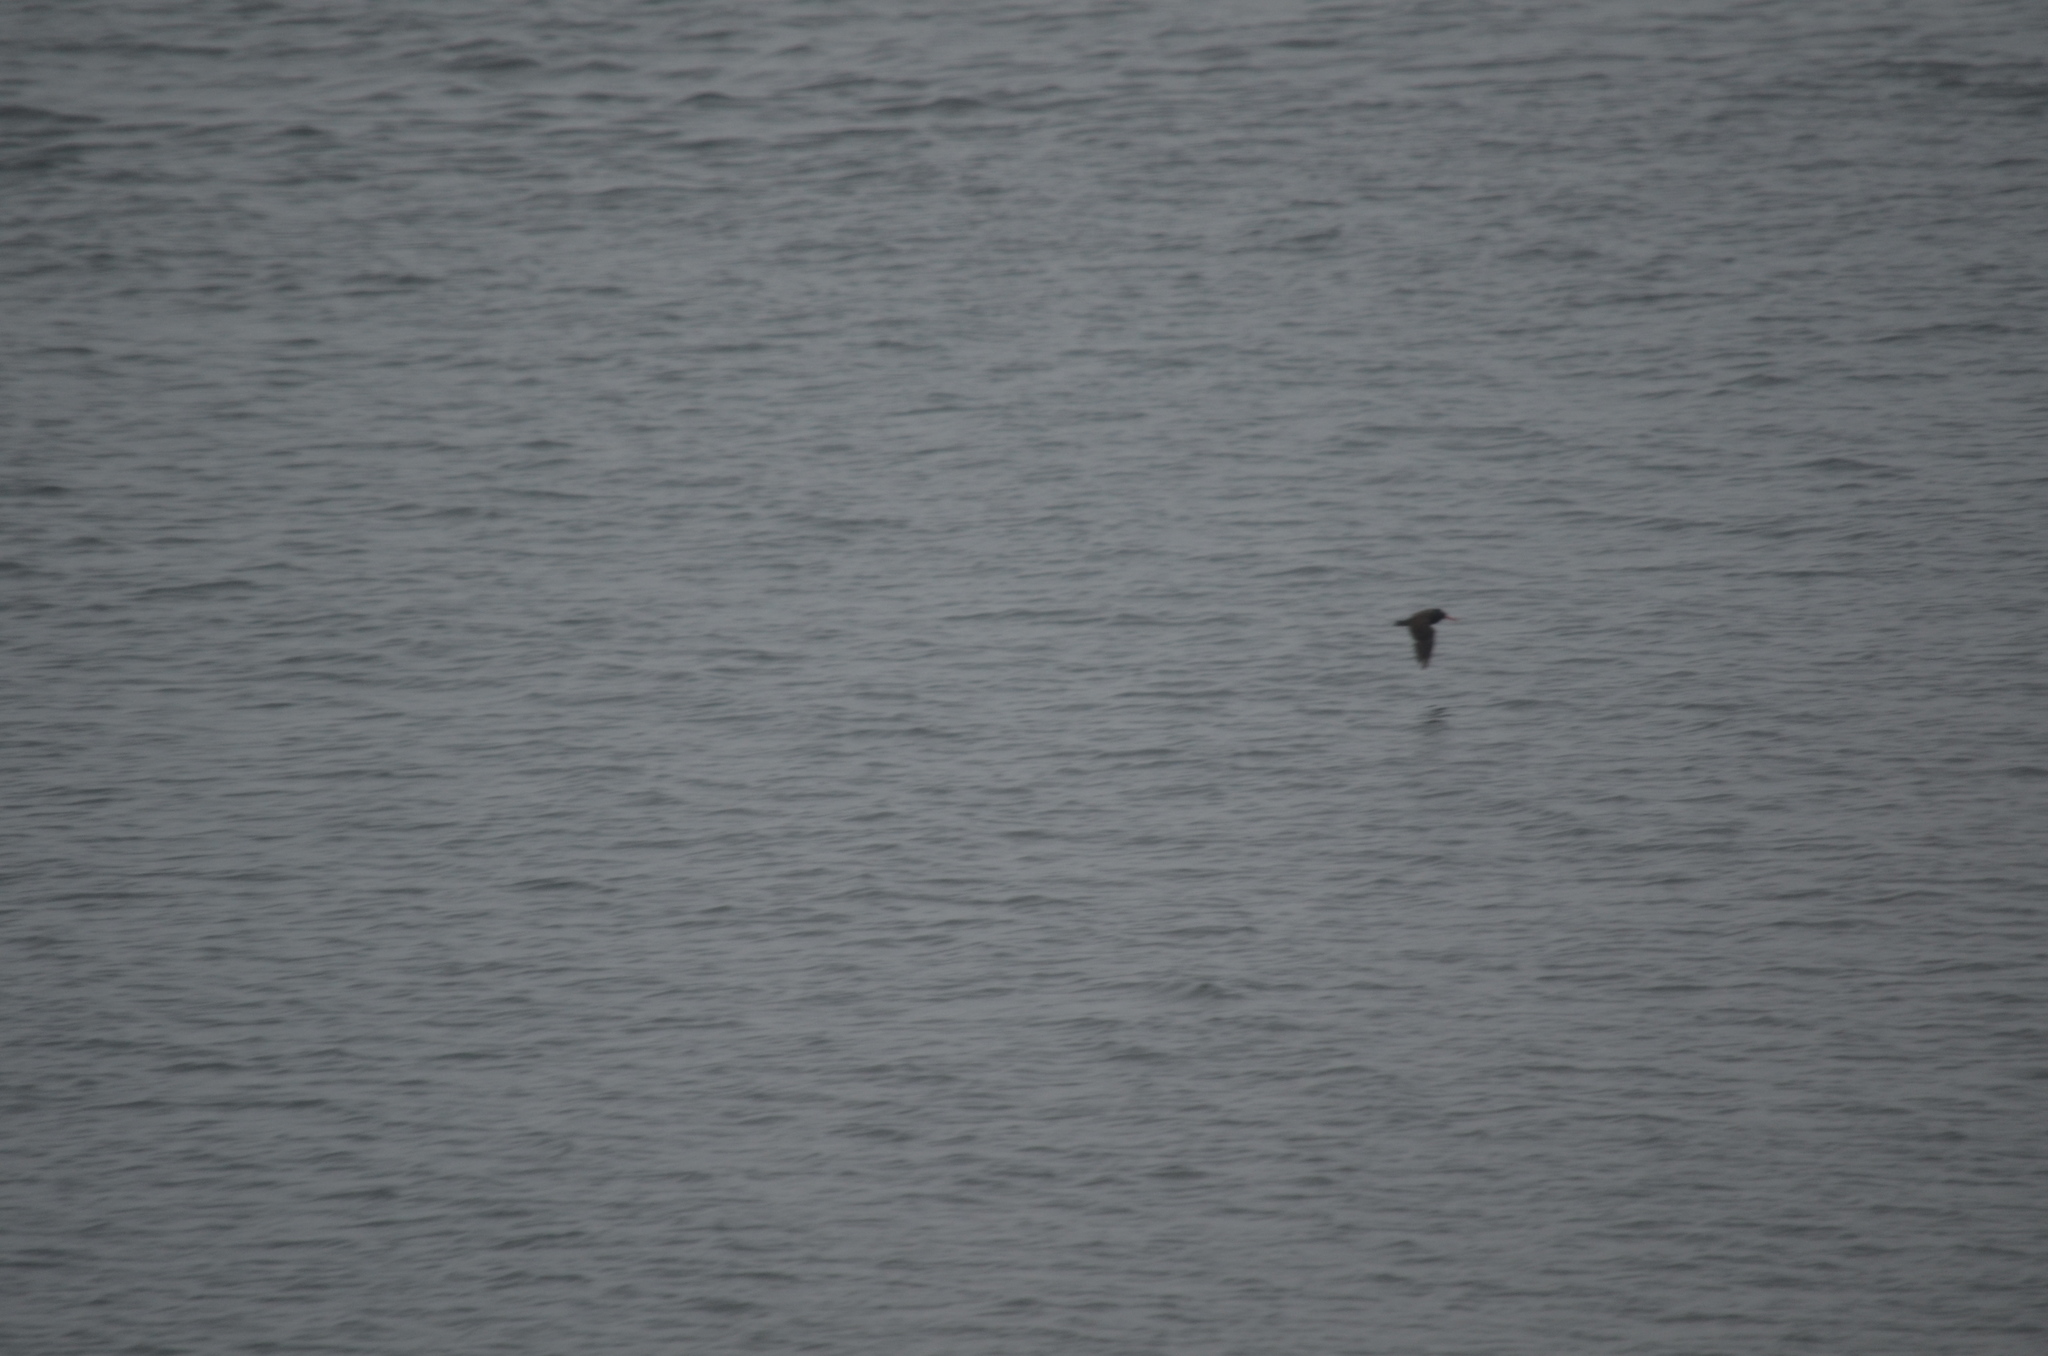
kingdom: Animalia
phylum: Chordata
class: Aves
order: Charadriiformes
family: Haematopodidae
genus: Haematopus
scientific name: Haematopus bachmani
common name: Black oystercatcher
